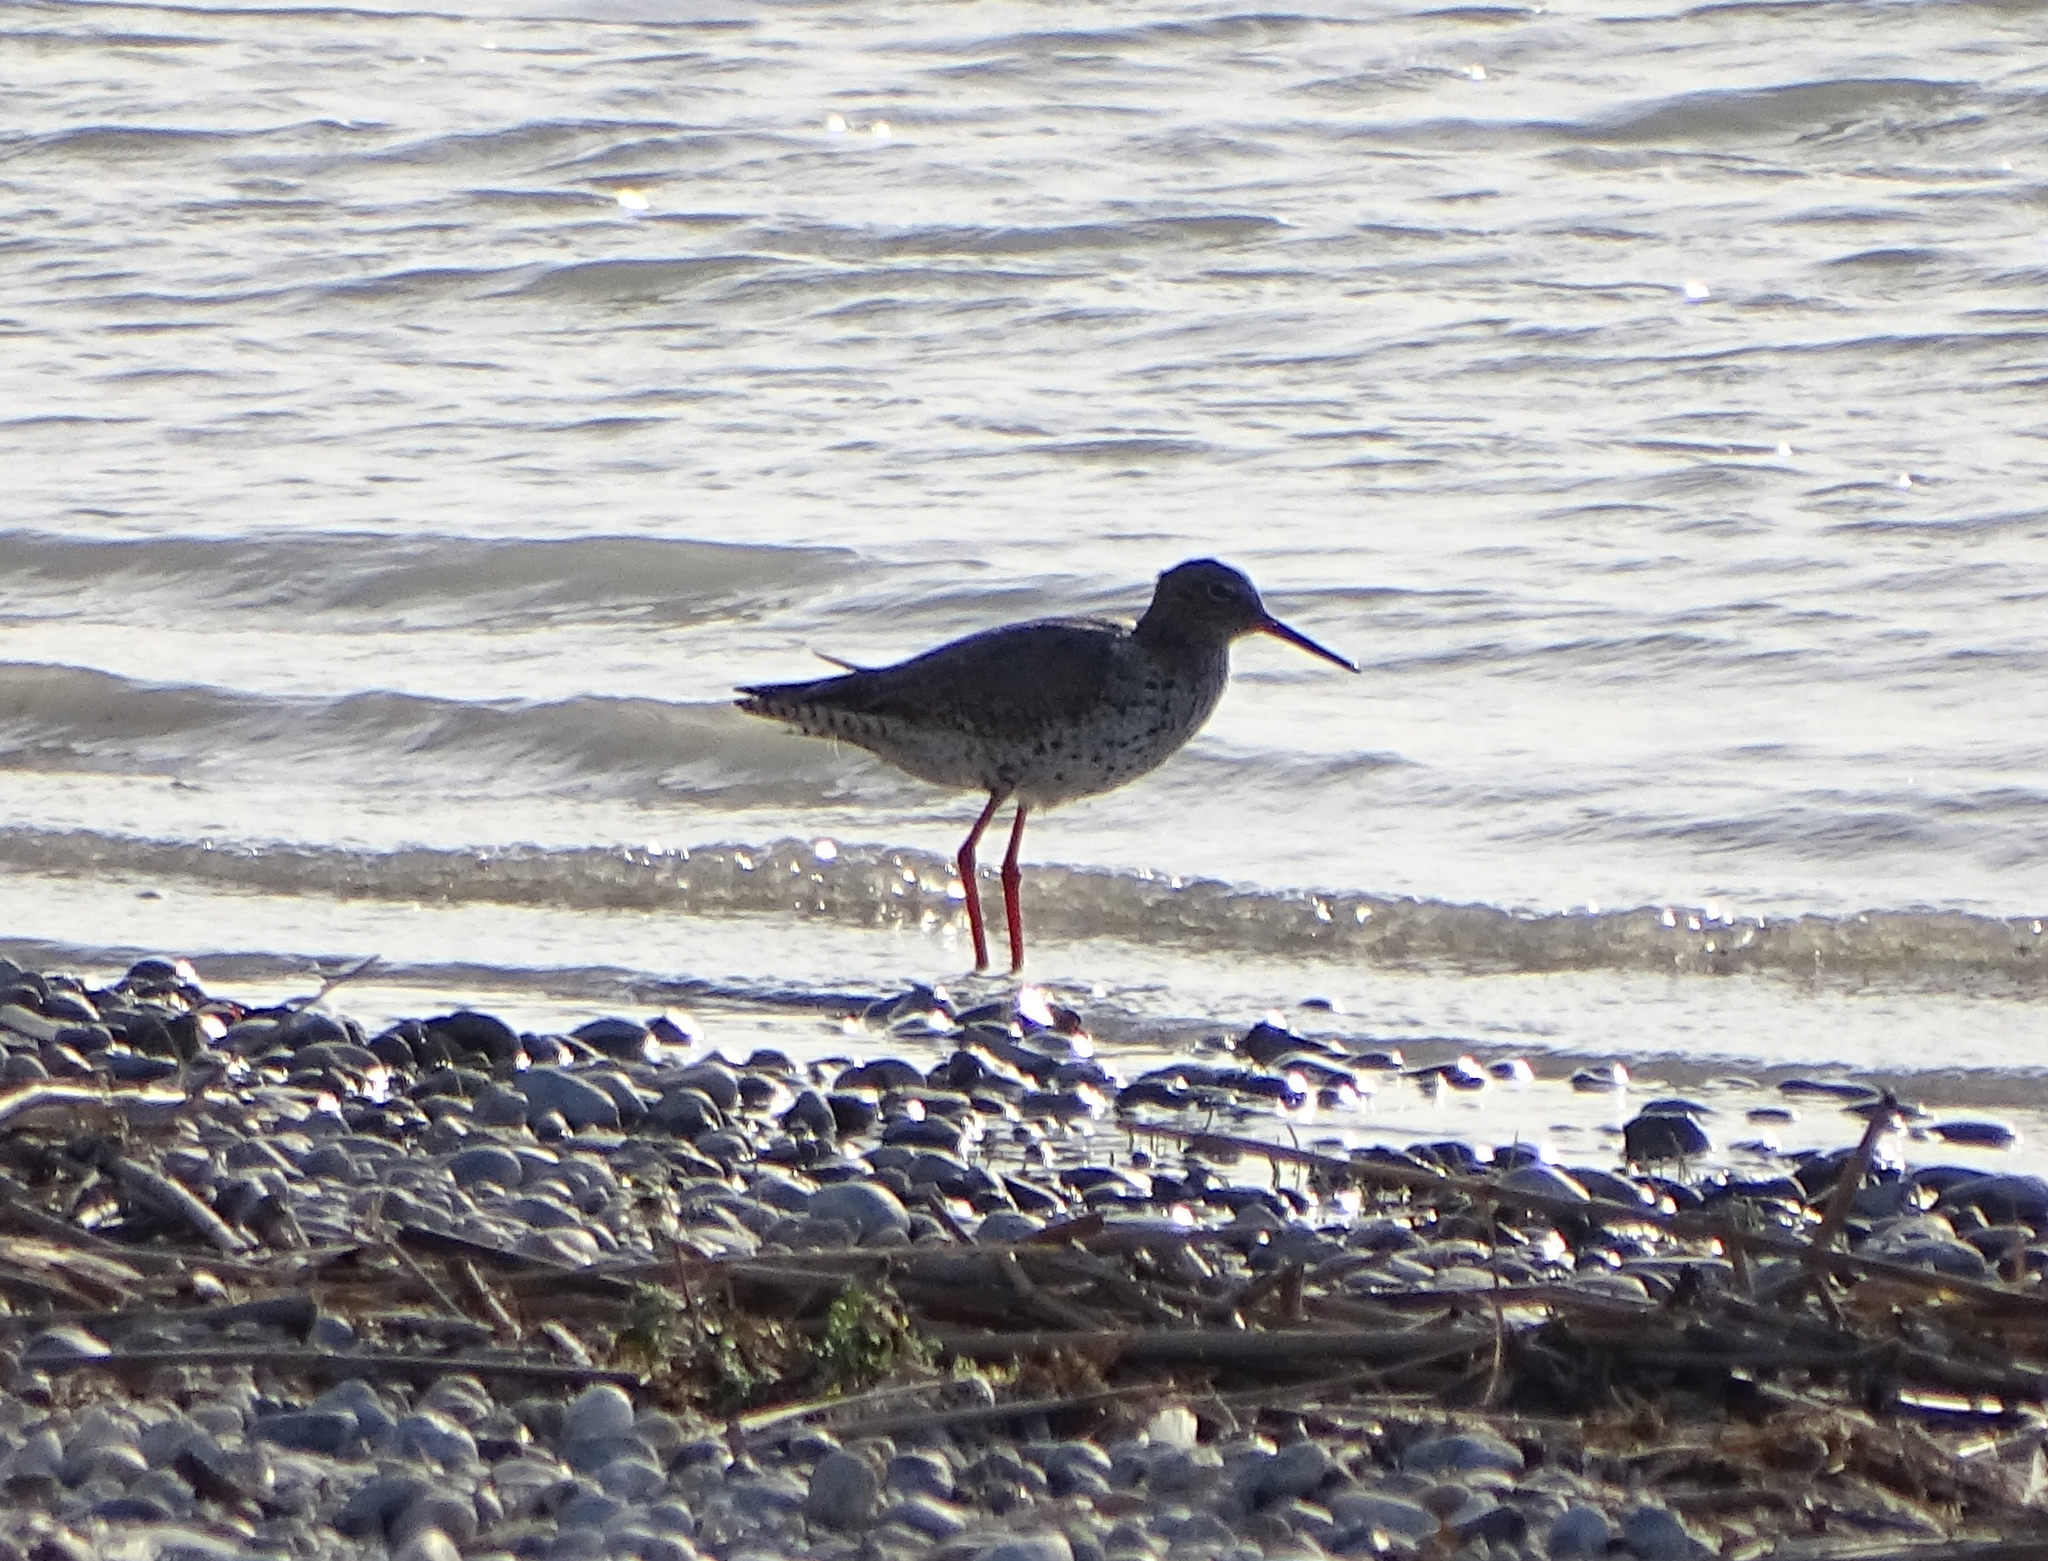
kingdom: Animalia
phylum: Chordata
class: Aves
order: Charadriiformes
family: Scolopacidae
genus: Tringa
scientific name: Tringa totanus
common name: Common redshank
